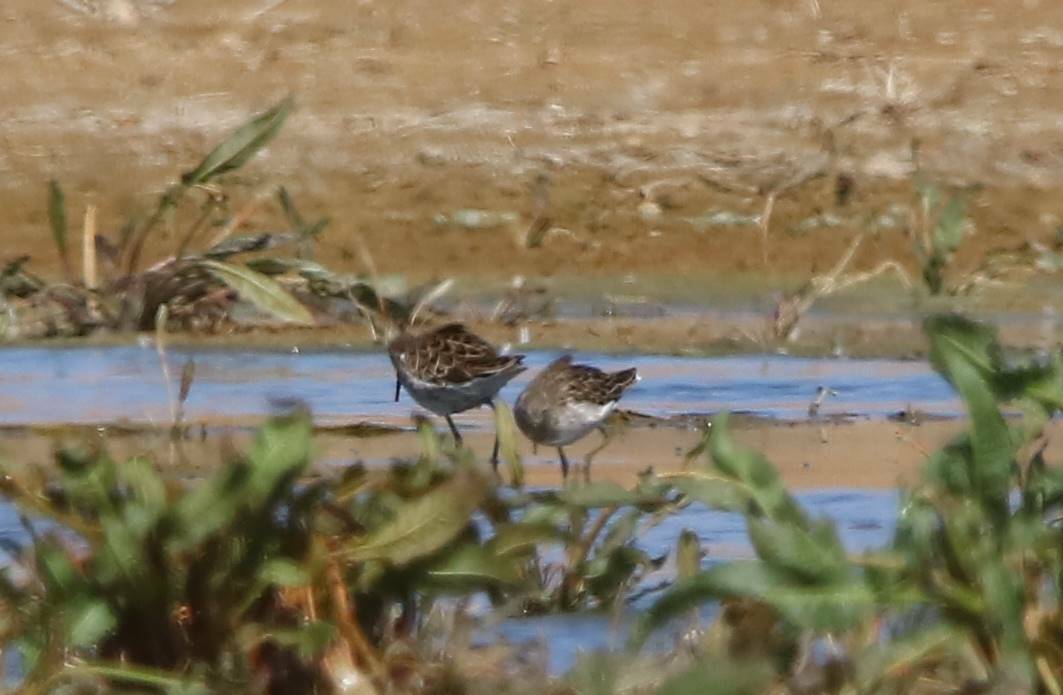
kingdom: Animalia
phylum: Chordata
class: Aves
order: Charadriiformes
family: Scolopacidae
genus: Calidris
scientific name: Calidris pugnax
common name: Ruff
